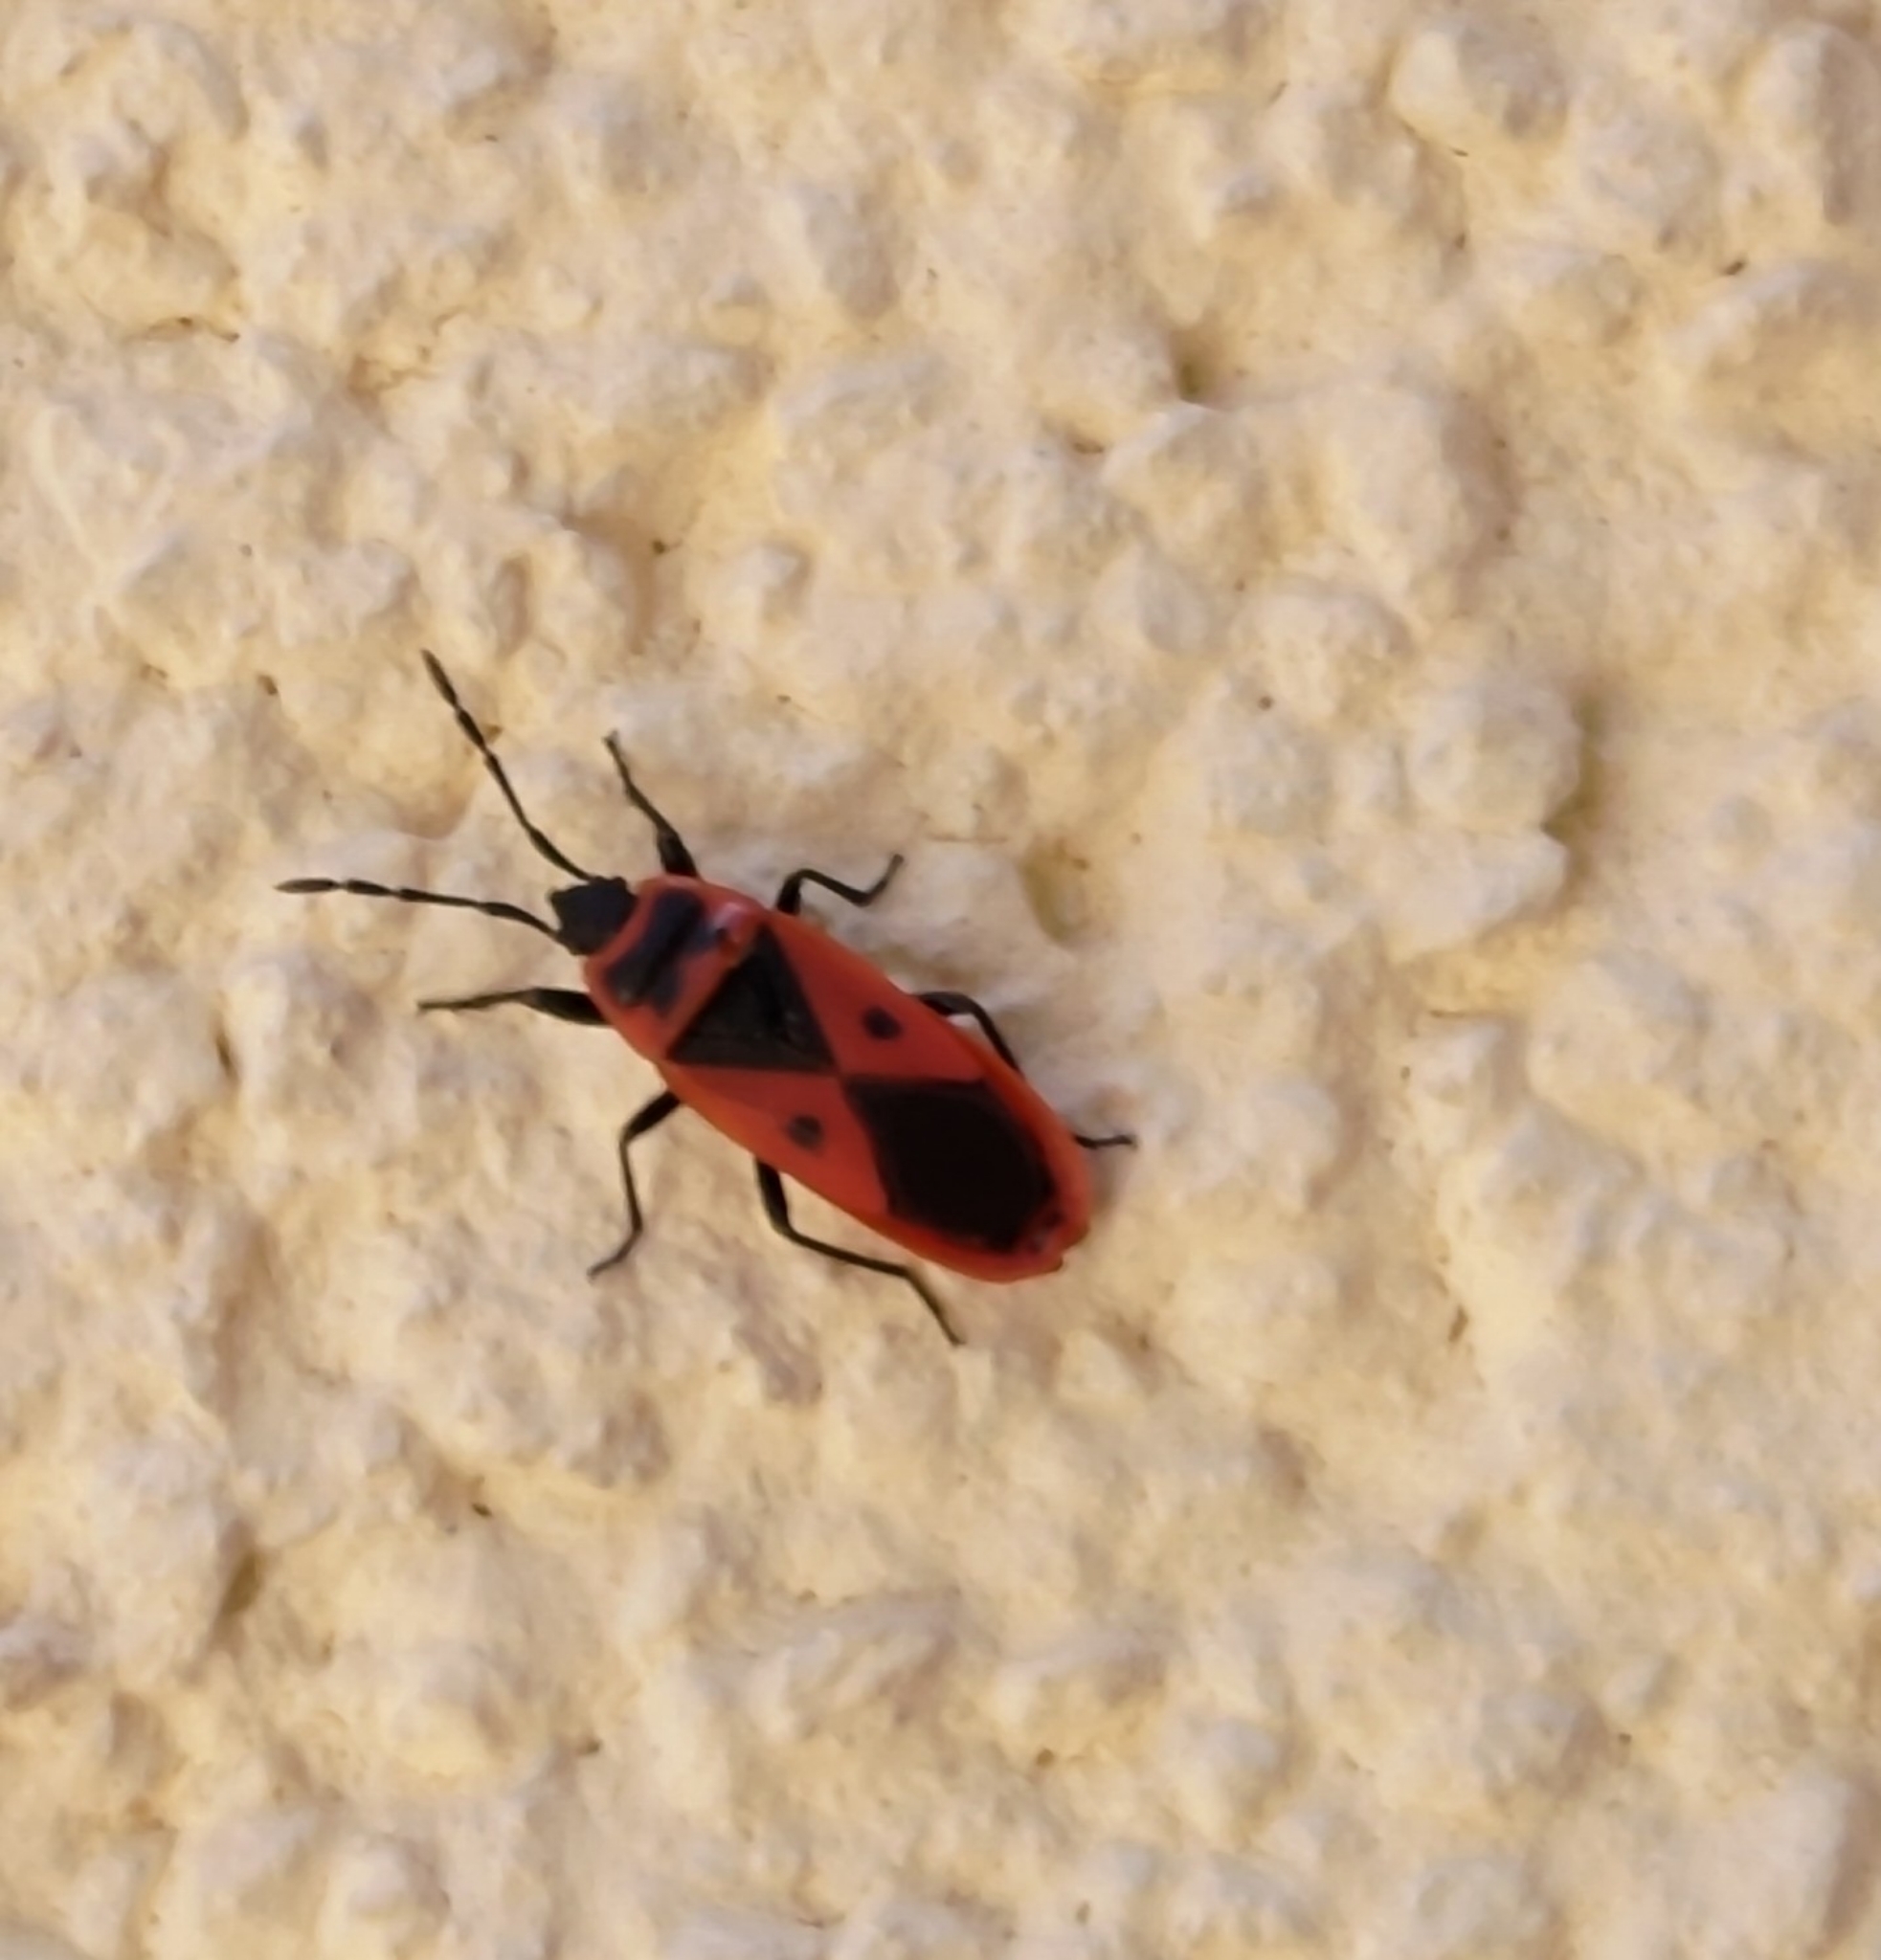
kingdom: Animalia
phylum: Arthropoda
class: Insecta
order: Hemiptera
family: Pyrrhocoridae
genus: Scantius
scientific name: Scantius aegyptius
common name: Red bug
